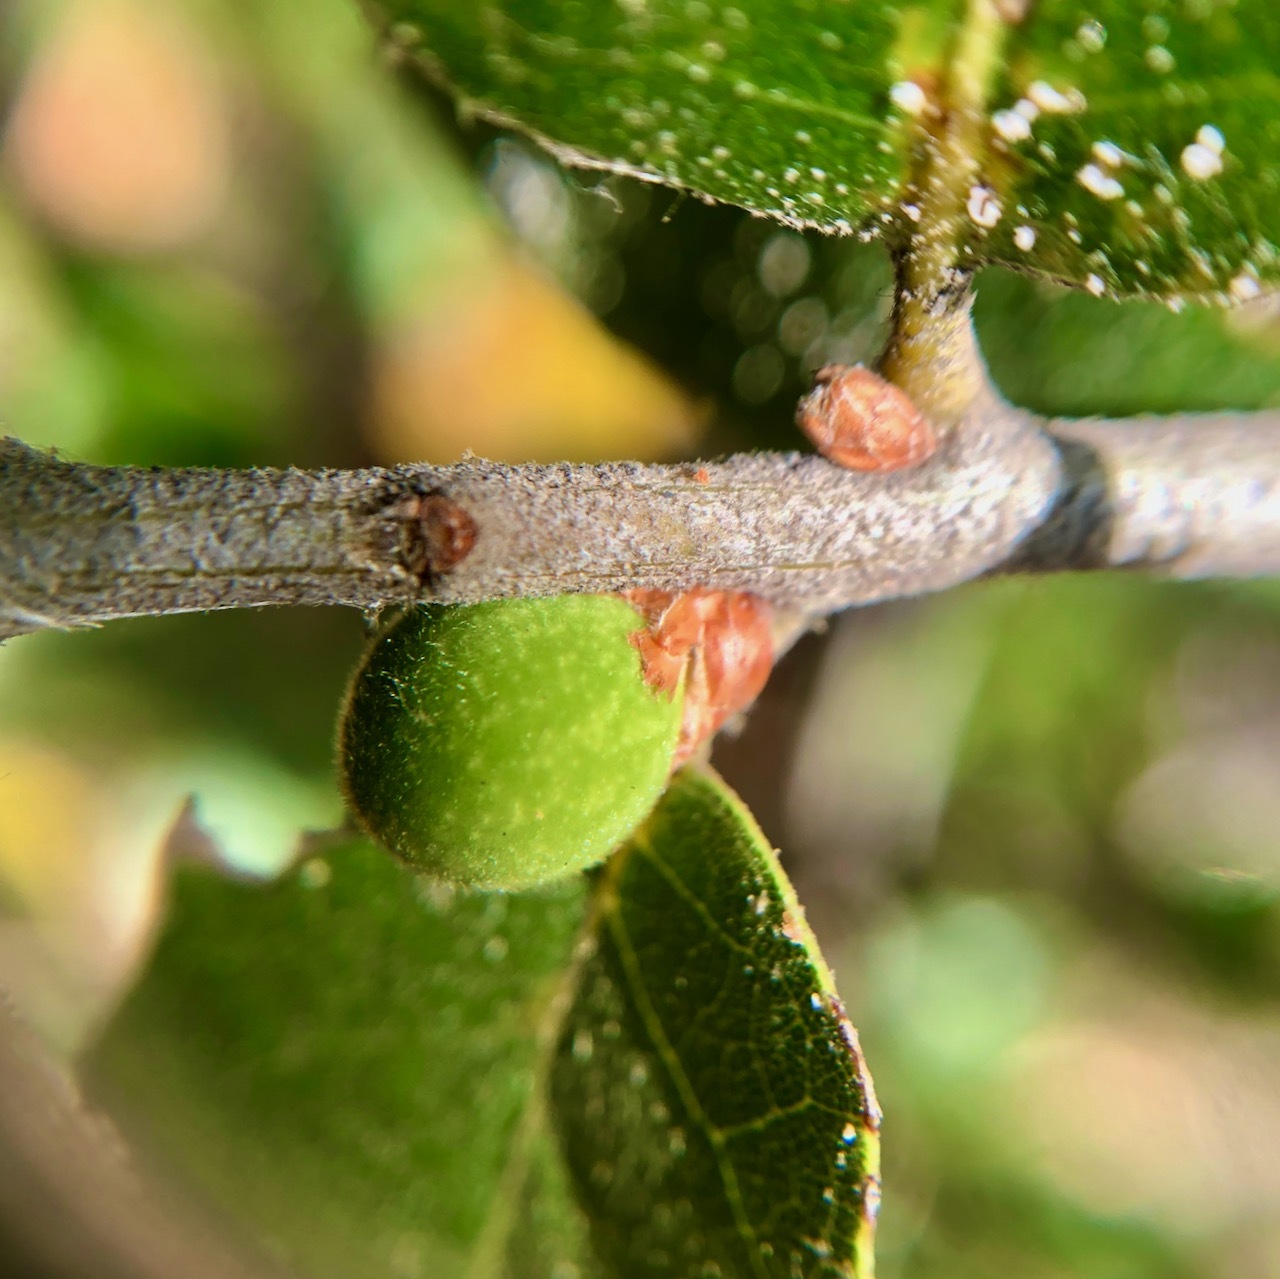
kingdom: Animalia
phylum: Arthropoda
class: Insecta
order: Hymenoptera
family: Cynipidae
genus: Callirhytis
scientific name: Callirhytis
